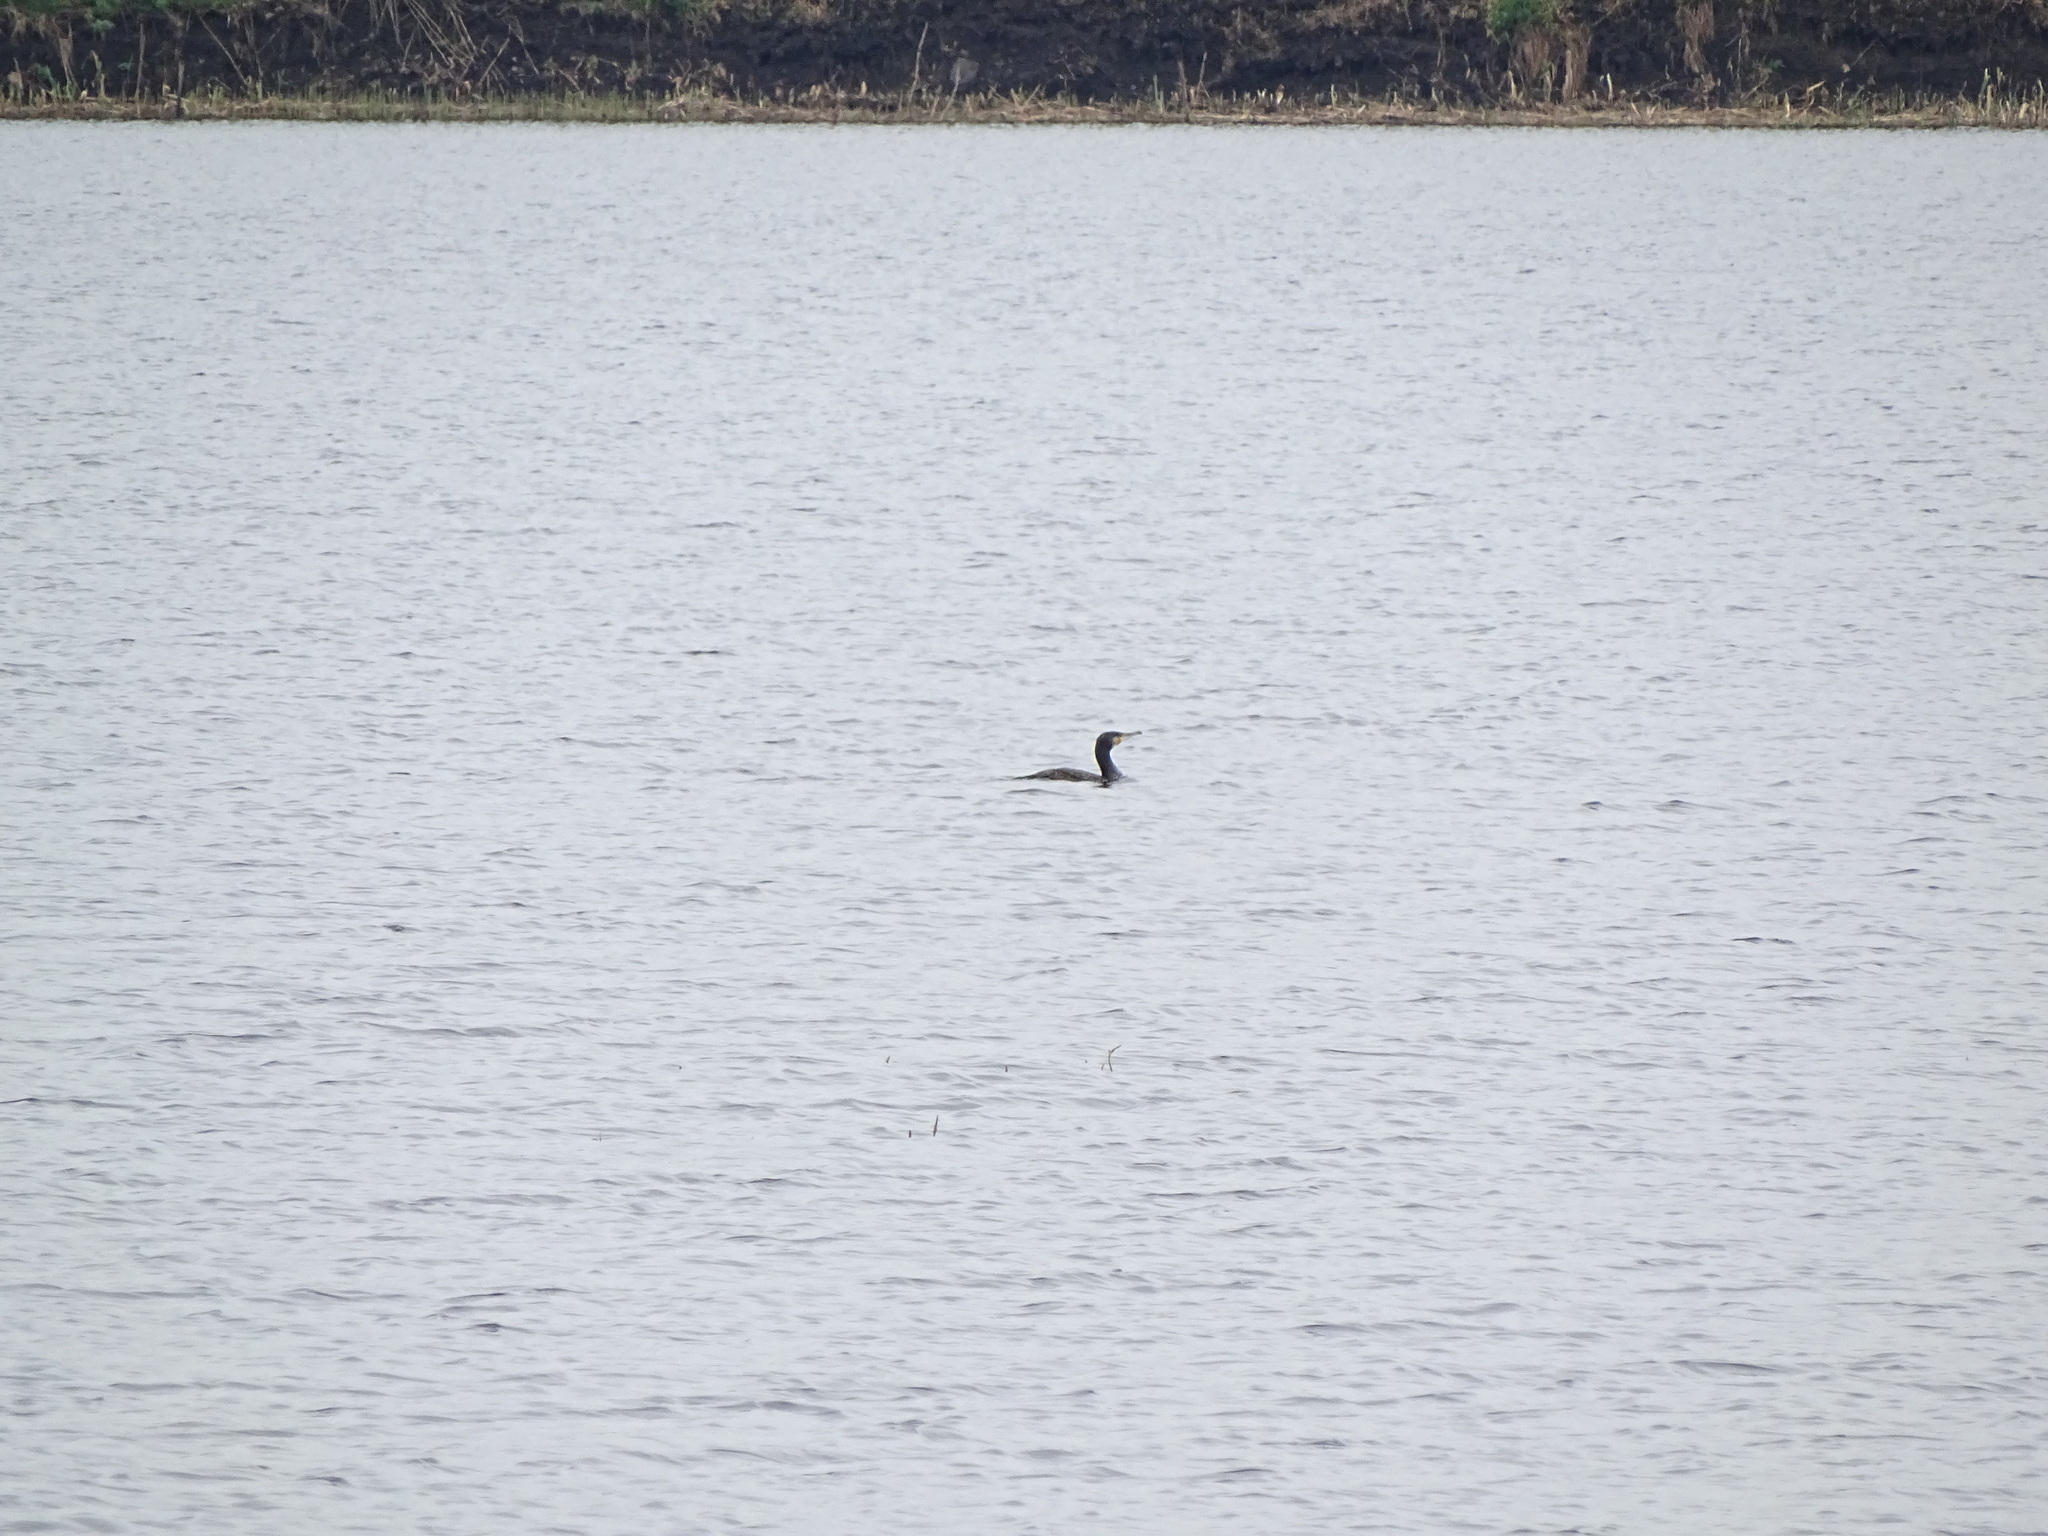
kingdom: Animalia
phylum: Chordata
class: Aves
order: Suliformes
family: Phalacrocoracidae
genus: Phalacrocorax
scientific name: Phalacrocorax carbo
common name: Great cormorant
